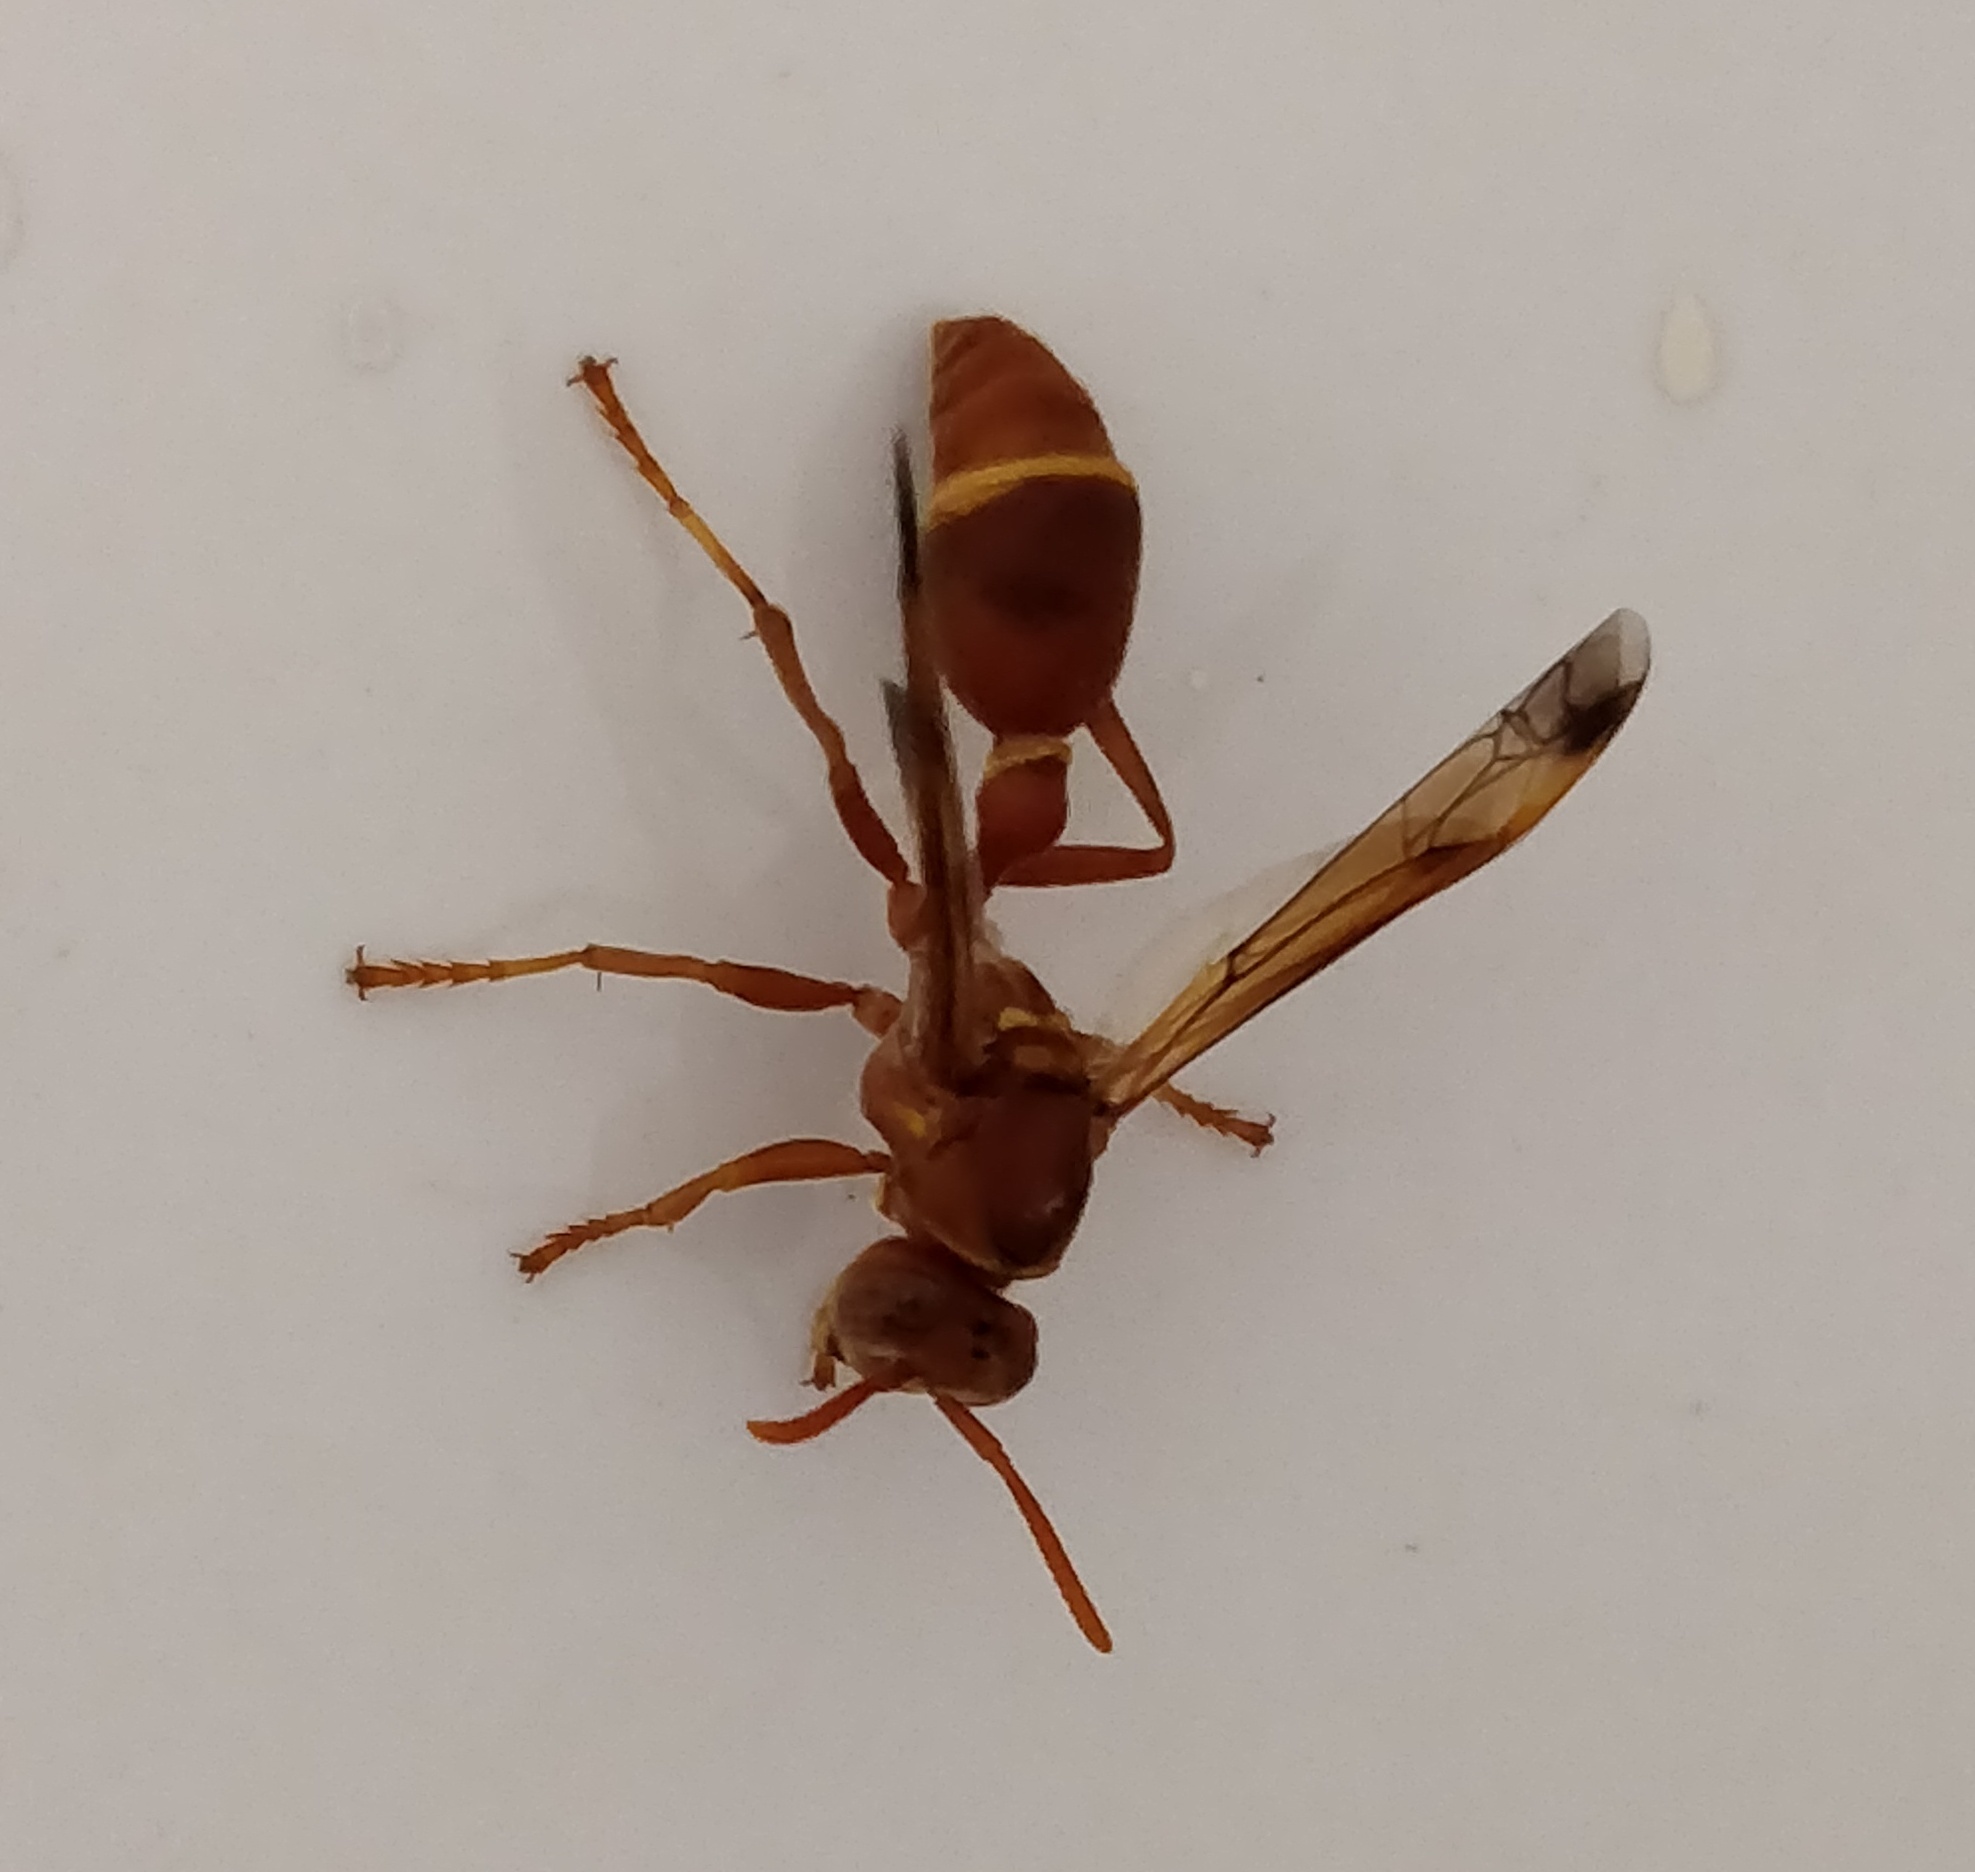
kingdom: Animalia
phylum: Arthropoda
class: Insecta
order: Hymenoptera
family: Vespidae
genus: Ropalidia
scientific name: Ropalidia marginata
